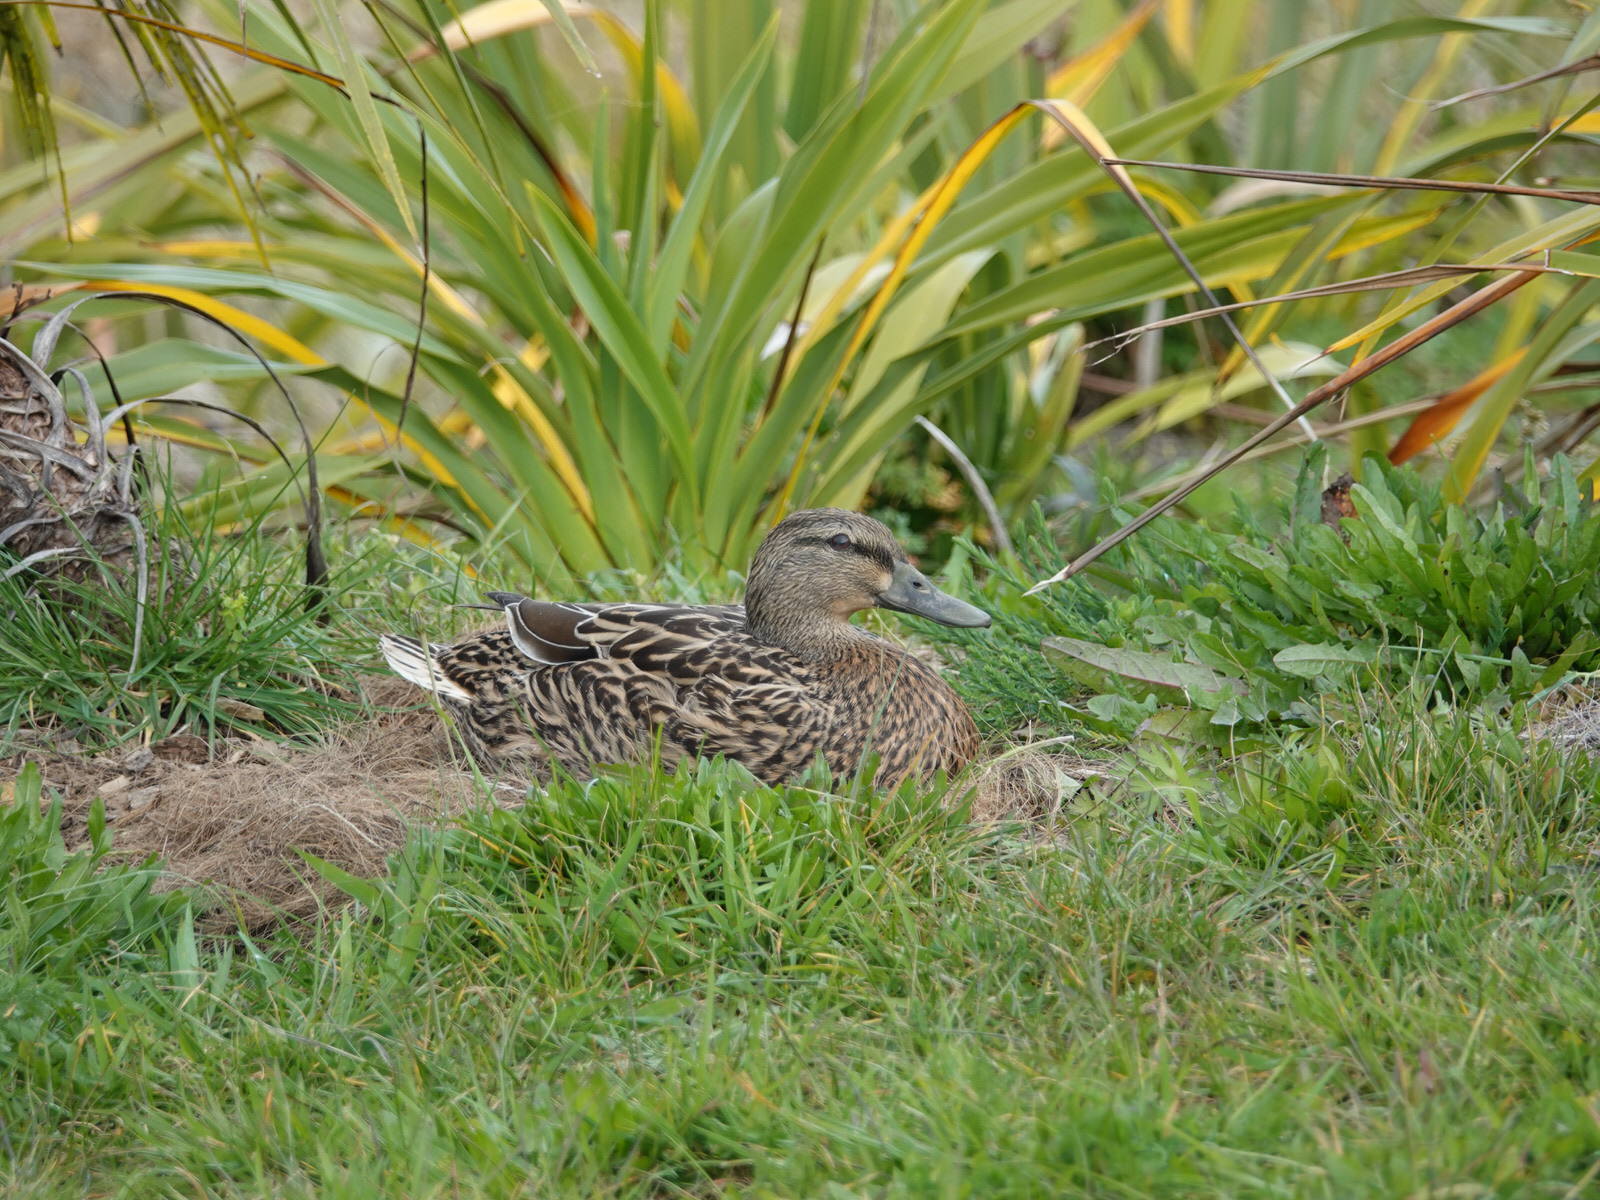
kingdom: Animalia
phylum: Chordata
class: Aves
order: Anseriformes
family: Anatidae
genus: Anas
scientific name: Anas
